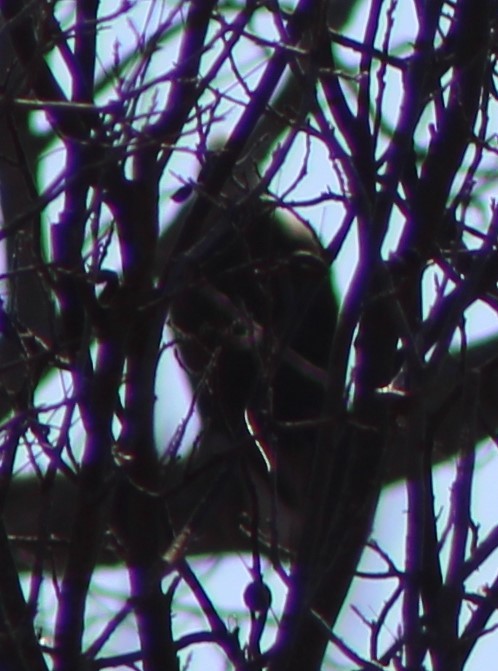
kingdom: Animalia
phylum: Chordata
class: Aves
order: Accipitriformes
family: Accipitridae
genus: Haliaeetus
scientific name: Haliaeetus leucocephalus
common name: Bald eagle
